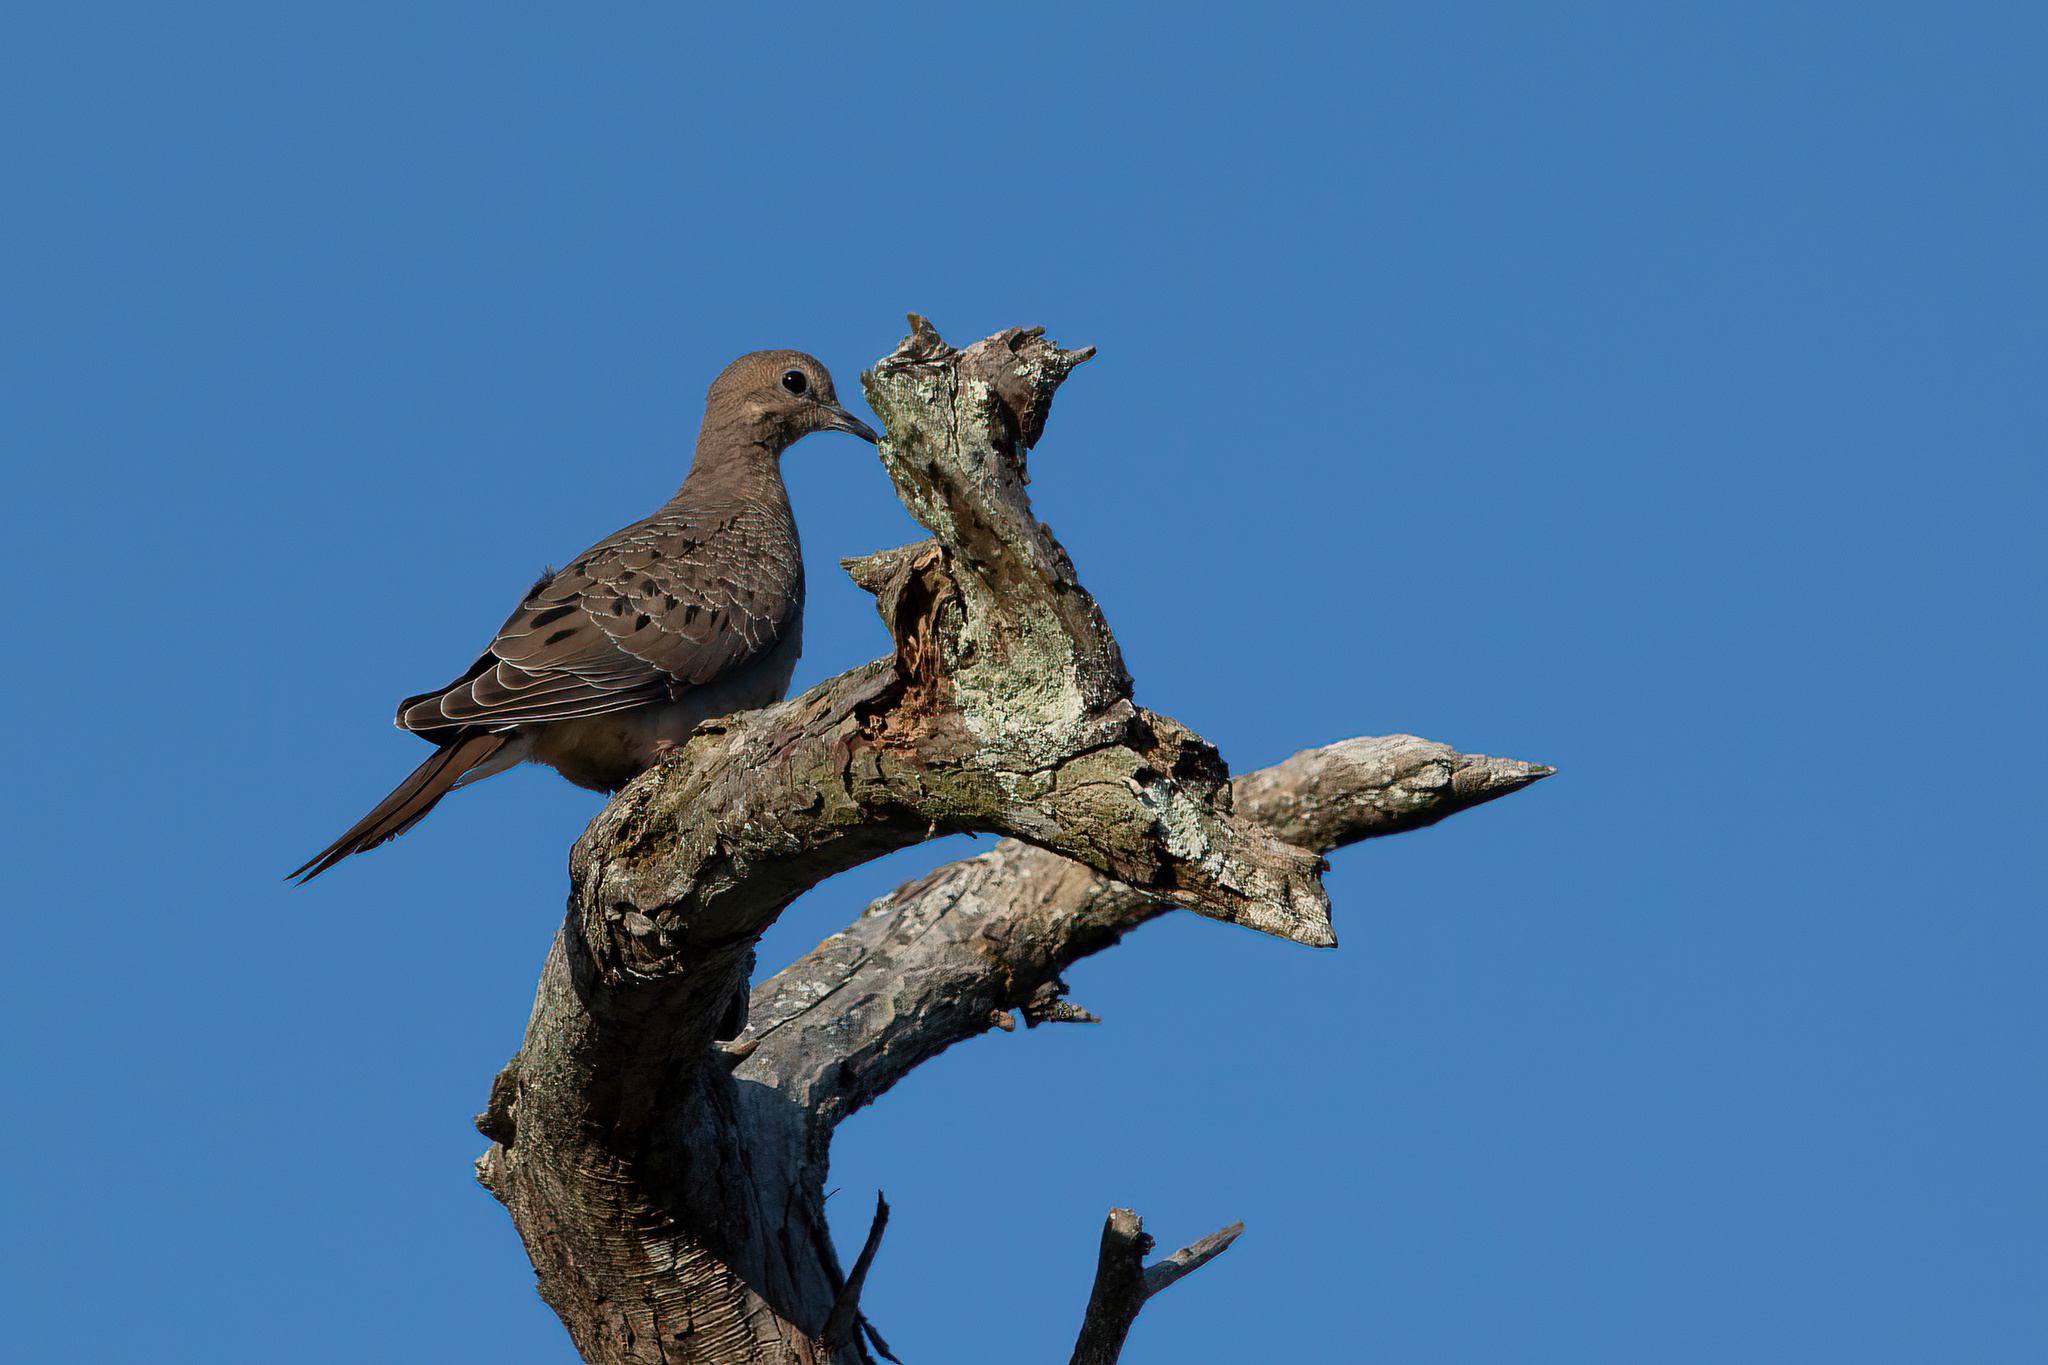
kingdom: Animalia
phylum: Chordata
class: Aves
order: Columbiformes
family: Columbidae
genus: Zenaida
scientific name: Zenaida macroura
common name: Mourning dove
